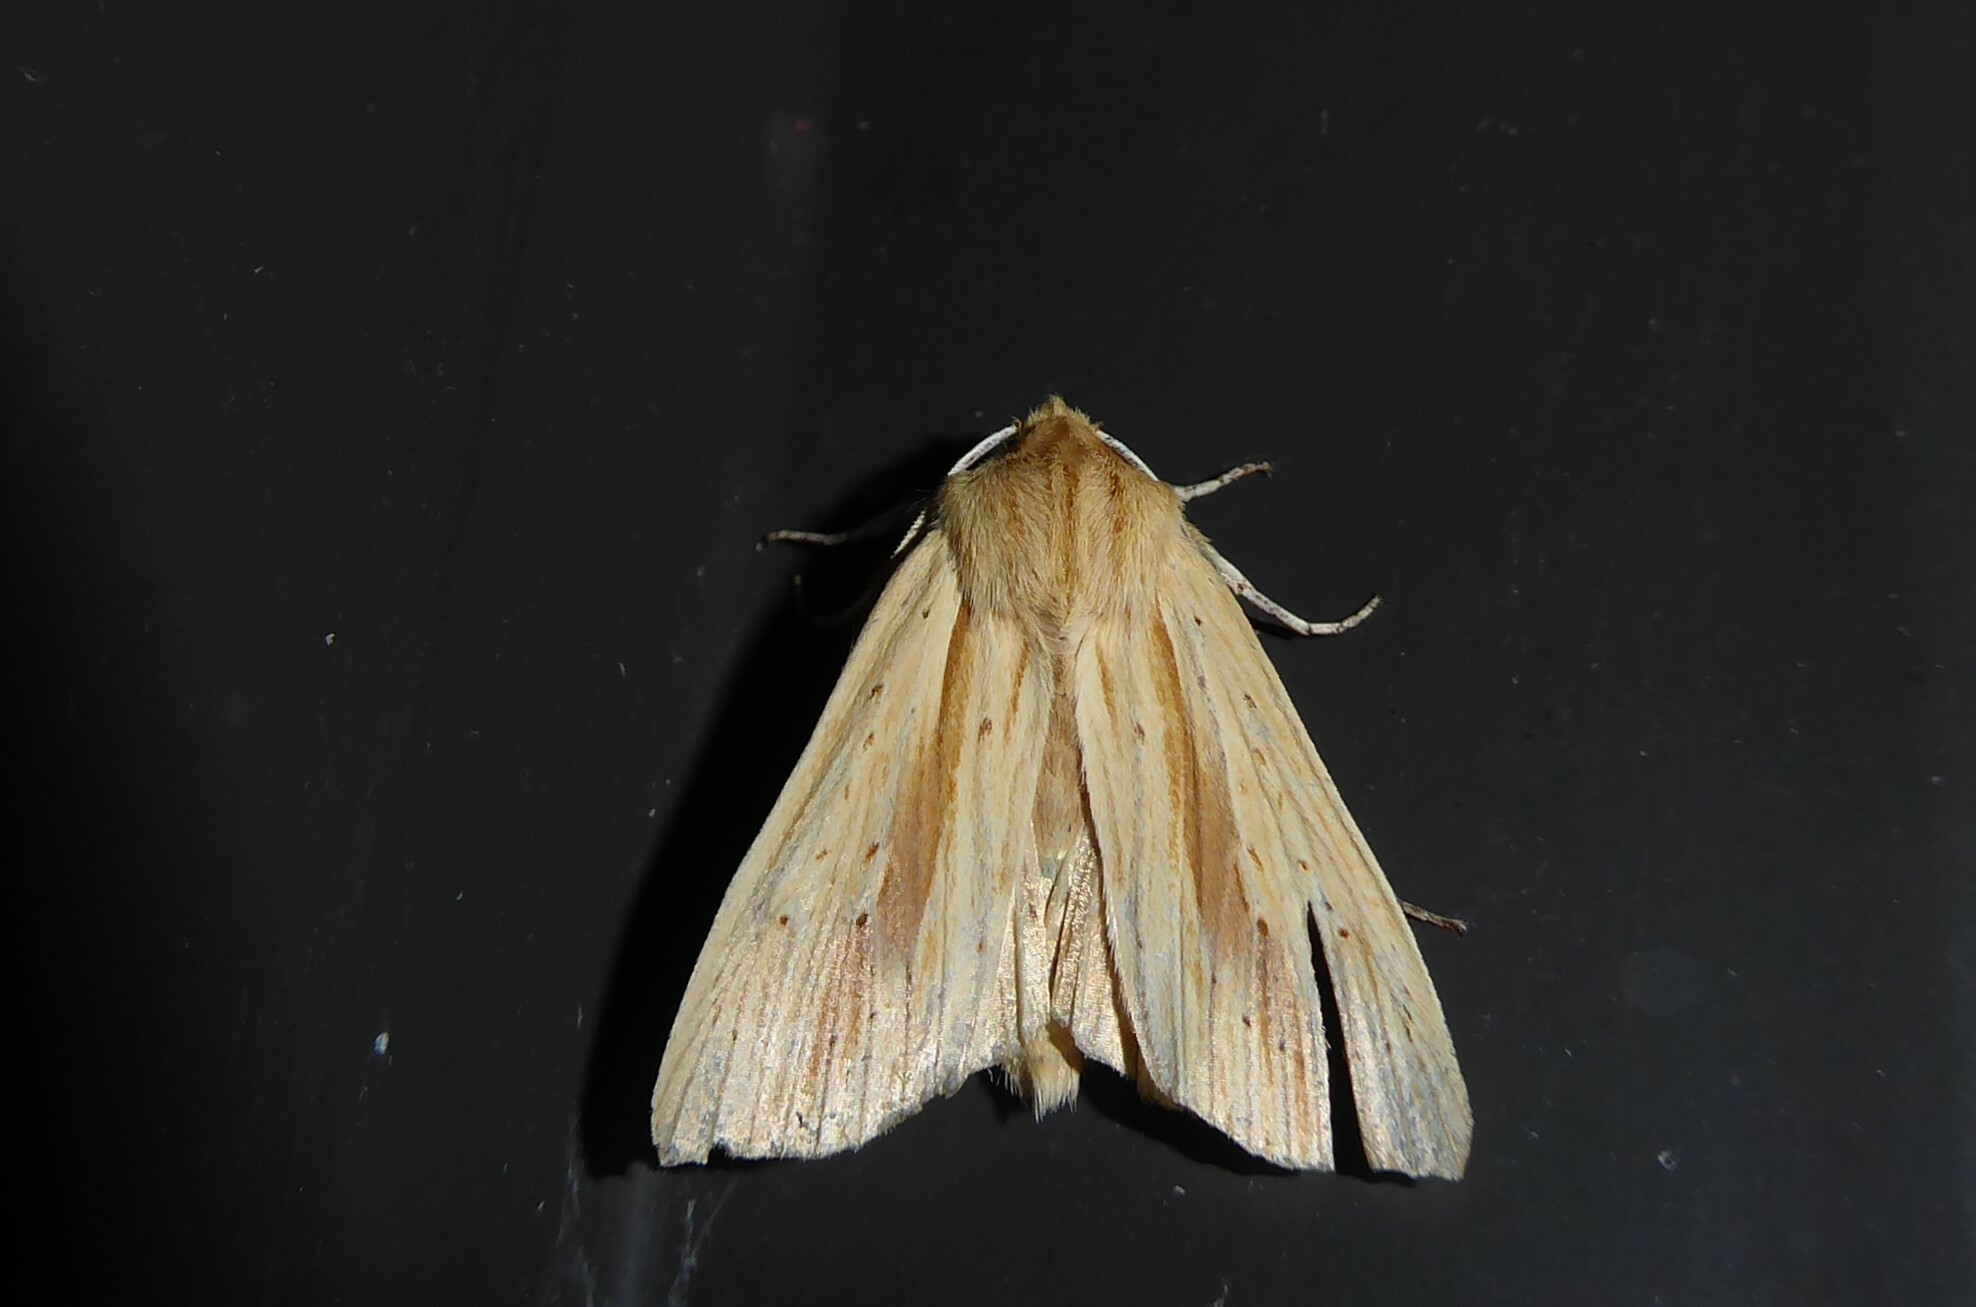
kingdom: Animalia
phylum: Arthropoda
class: Insecta
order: Lepidoptera
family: Noctuidae
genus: Ichneutica
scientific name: Ichneutica semivittata
